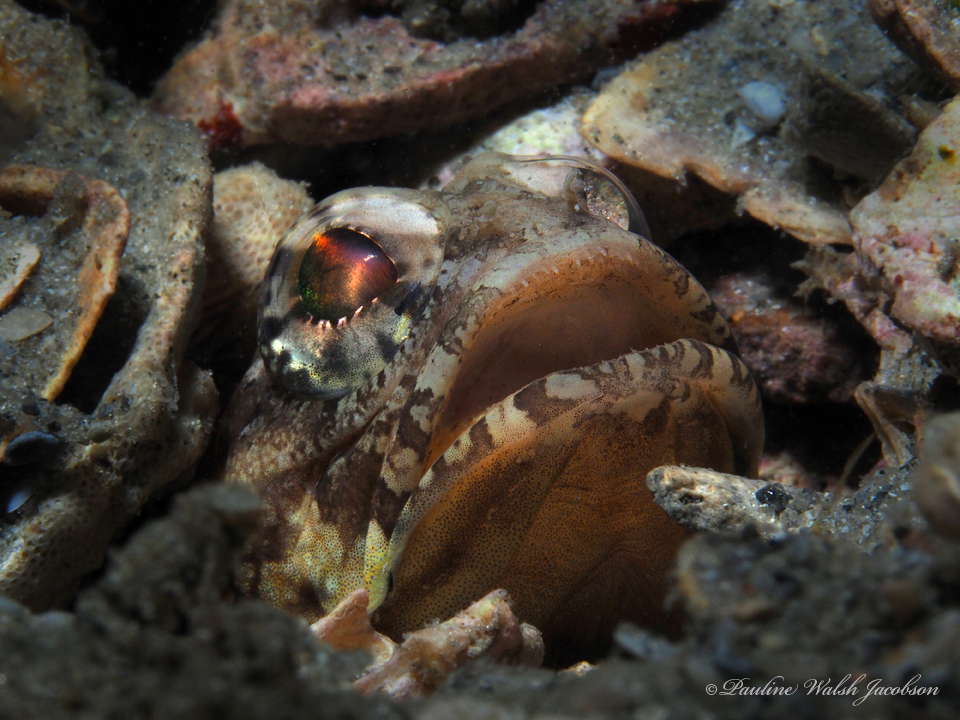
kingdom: Animalia
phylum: Chordata
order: Perciformes
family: Opistognathidae
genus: Opistognathus
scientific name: Opistognathus robinsi
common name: Spotfin jawfish
